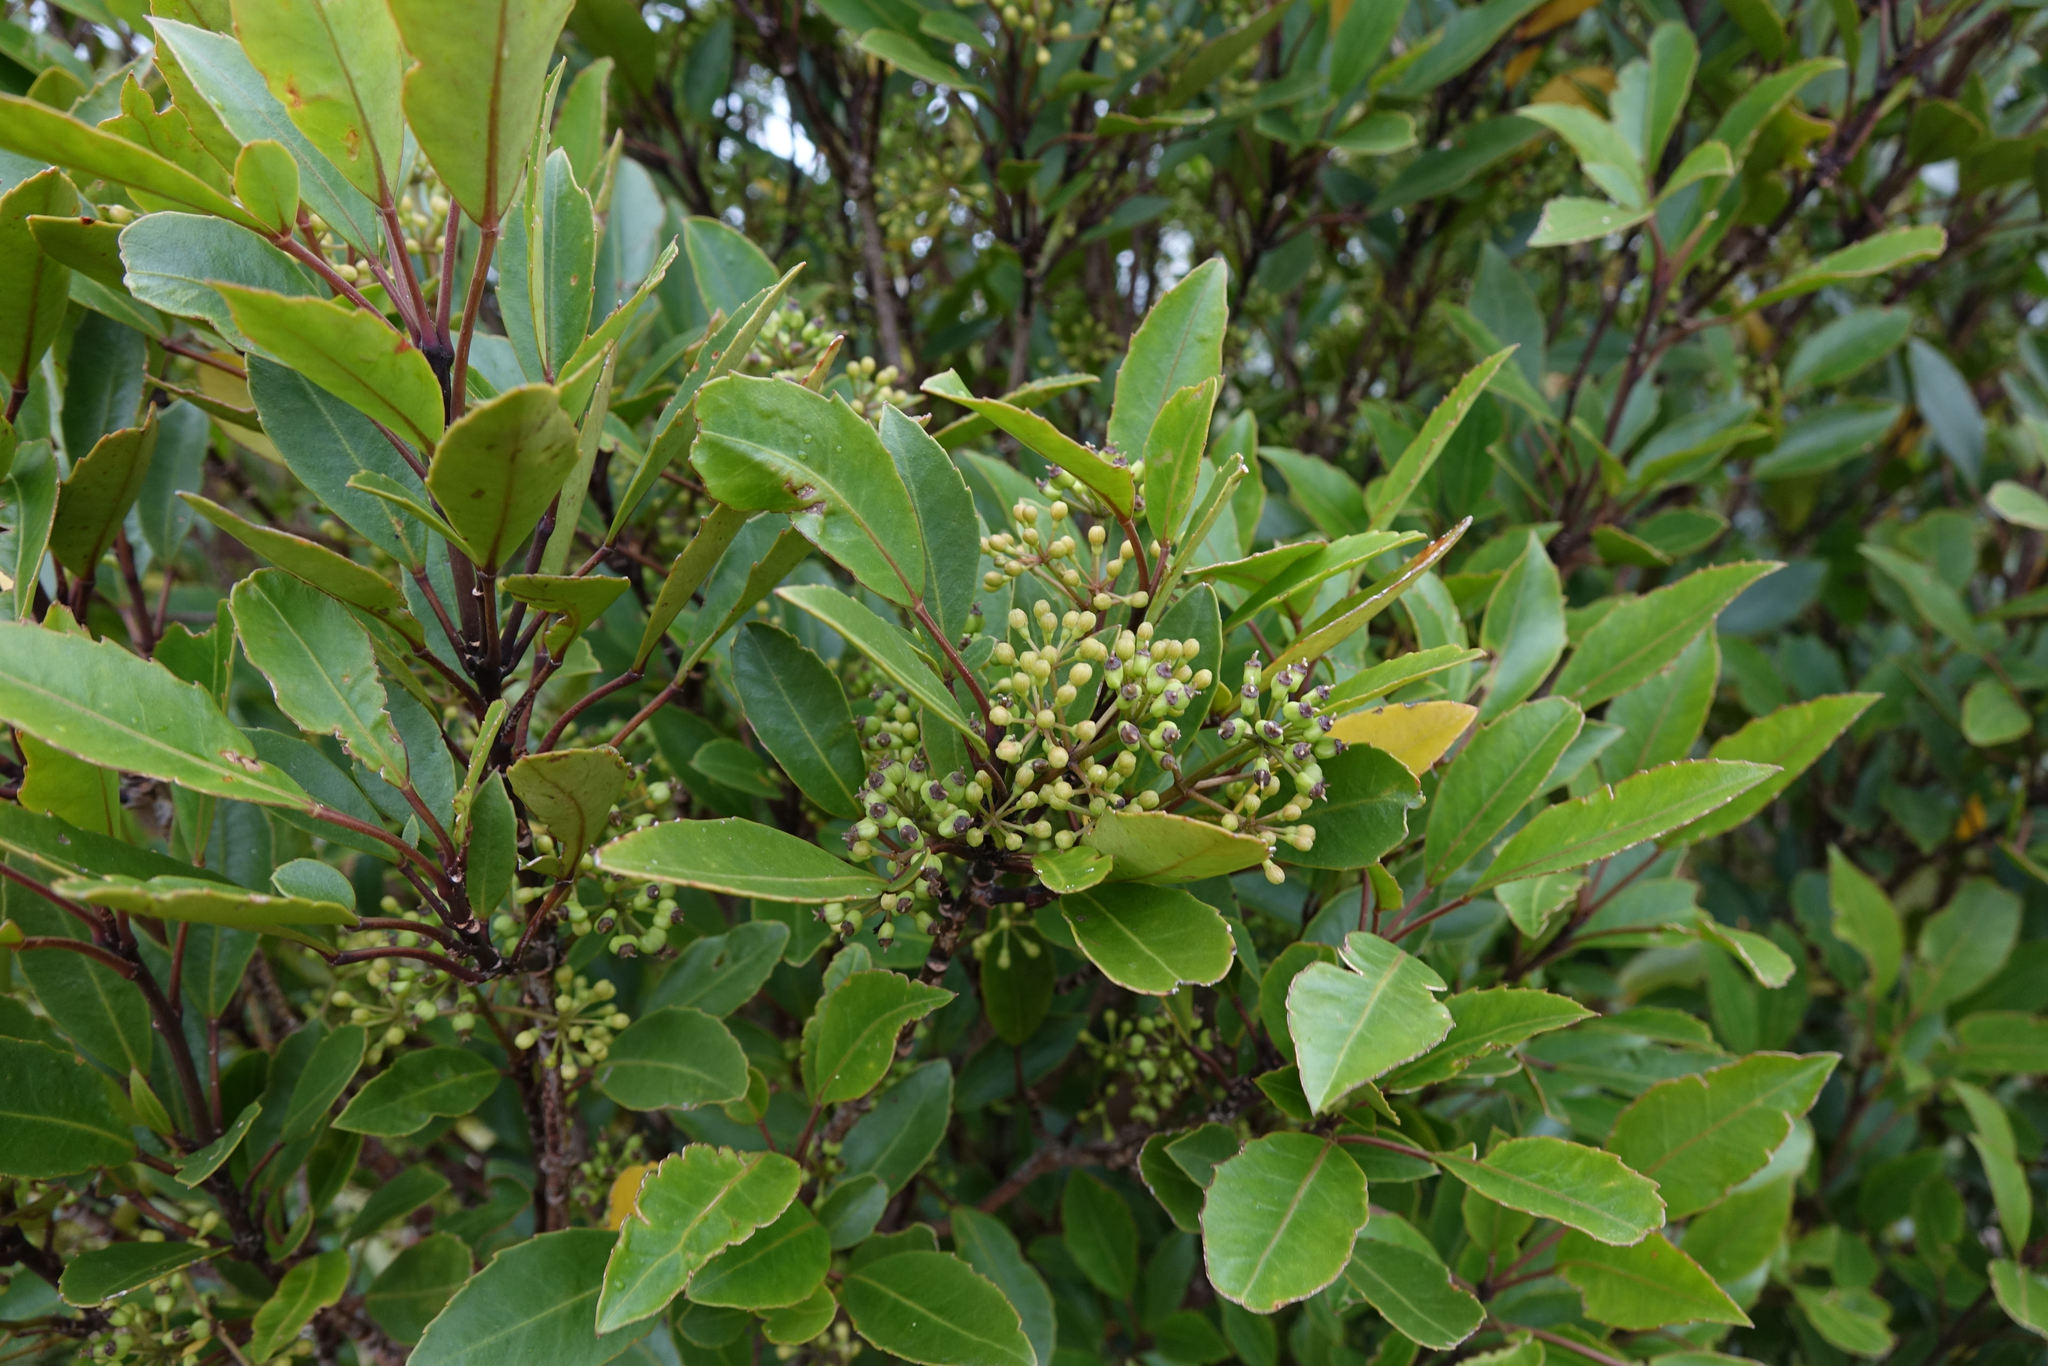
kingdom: Plantae
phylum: Tracheophyta
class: Magnoliopsida
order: Apiales
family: Araliaceae
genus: Raukaua
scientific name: Raukaua simplex
